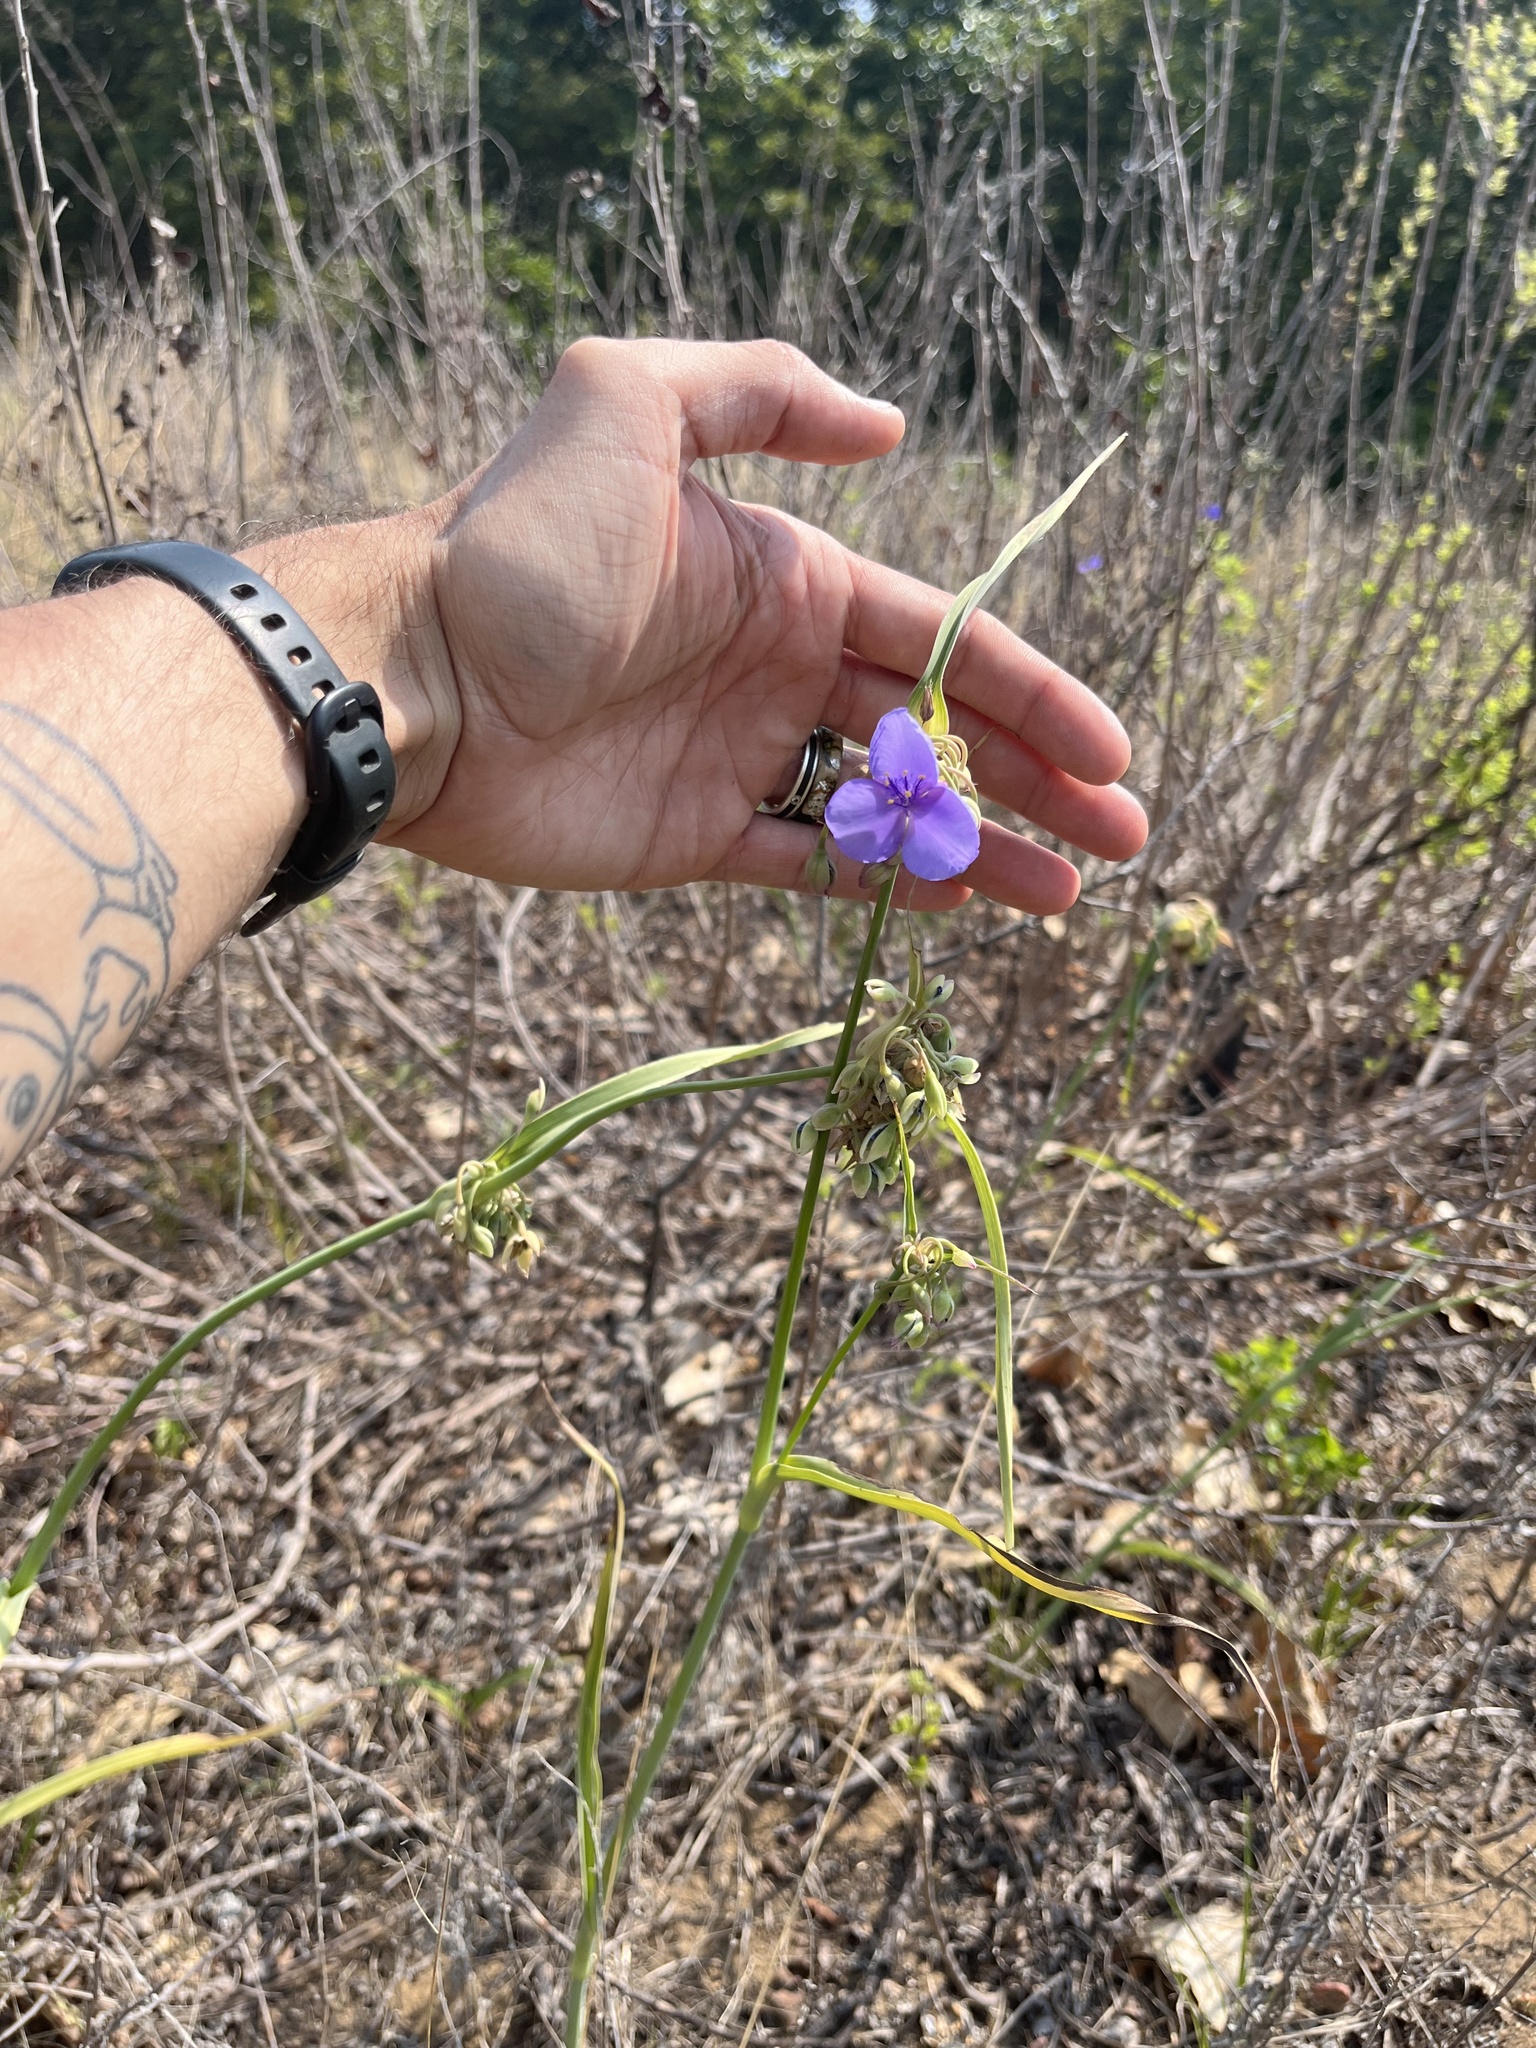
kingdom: Plantae
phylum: Tracheophyta
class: Liliopsida
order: Commelinales
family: Commelinaceae
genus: Tradescantia
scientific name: Tradescantia ohiensis
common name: Ohio spiderwort
